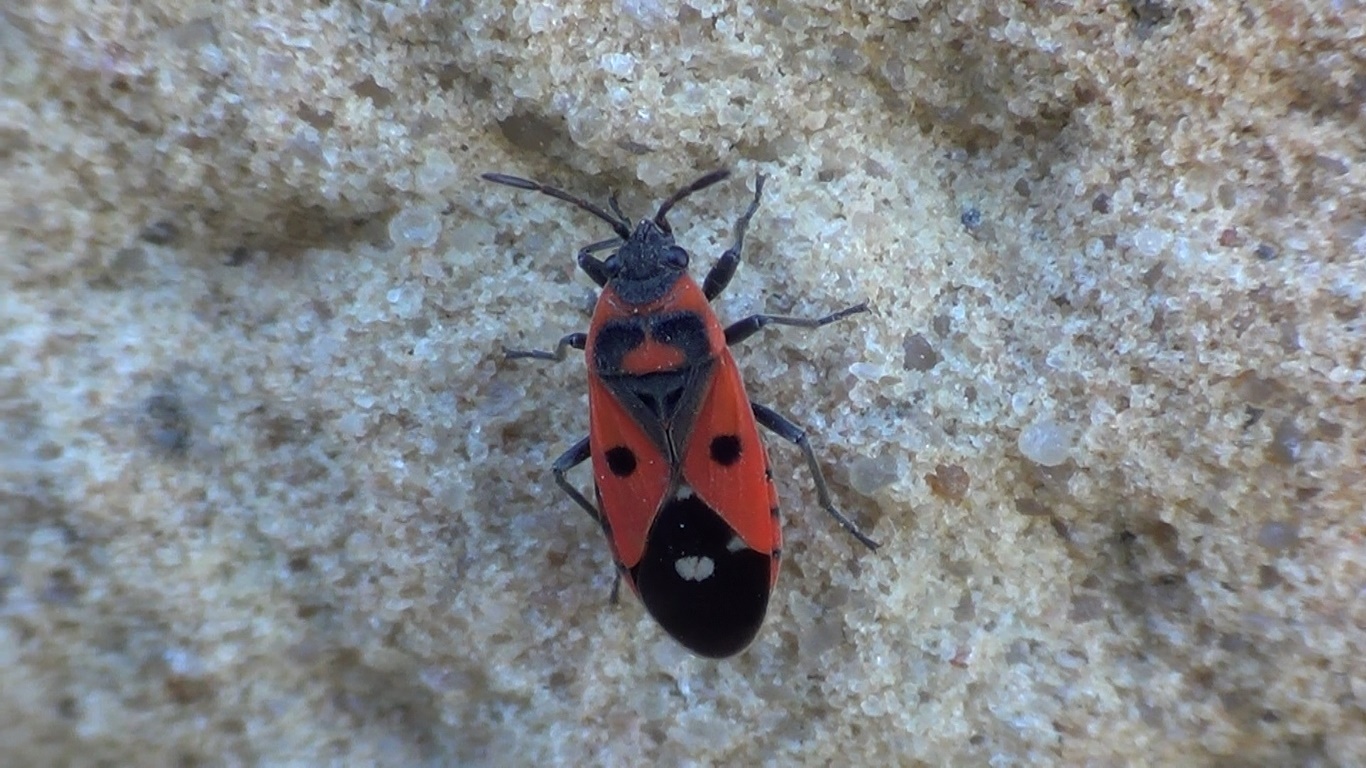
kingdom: Animalia
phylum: Arthropoda
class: Insecta
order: Hemiptera
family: Lygaeidae
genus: Melanocoryphus
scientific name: Melanocoryphus albomaculatus
